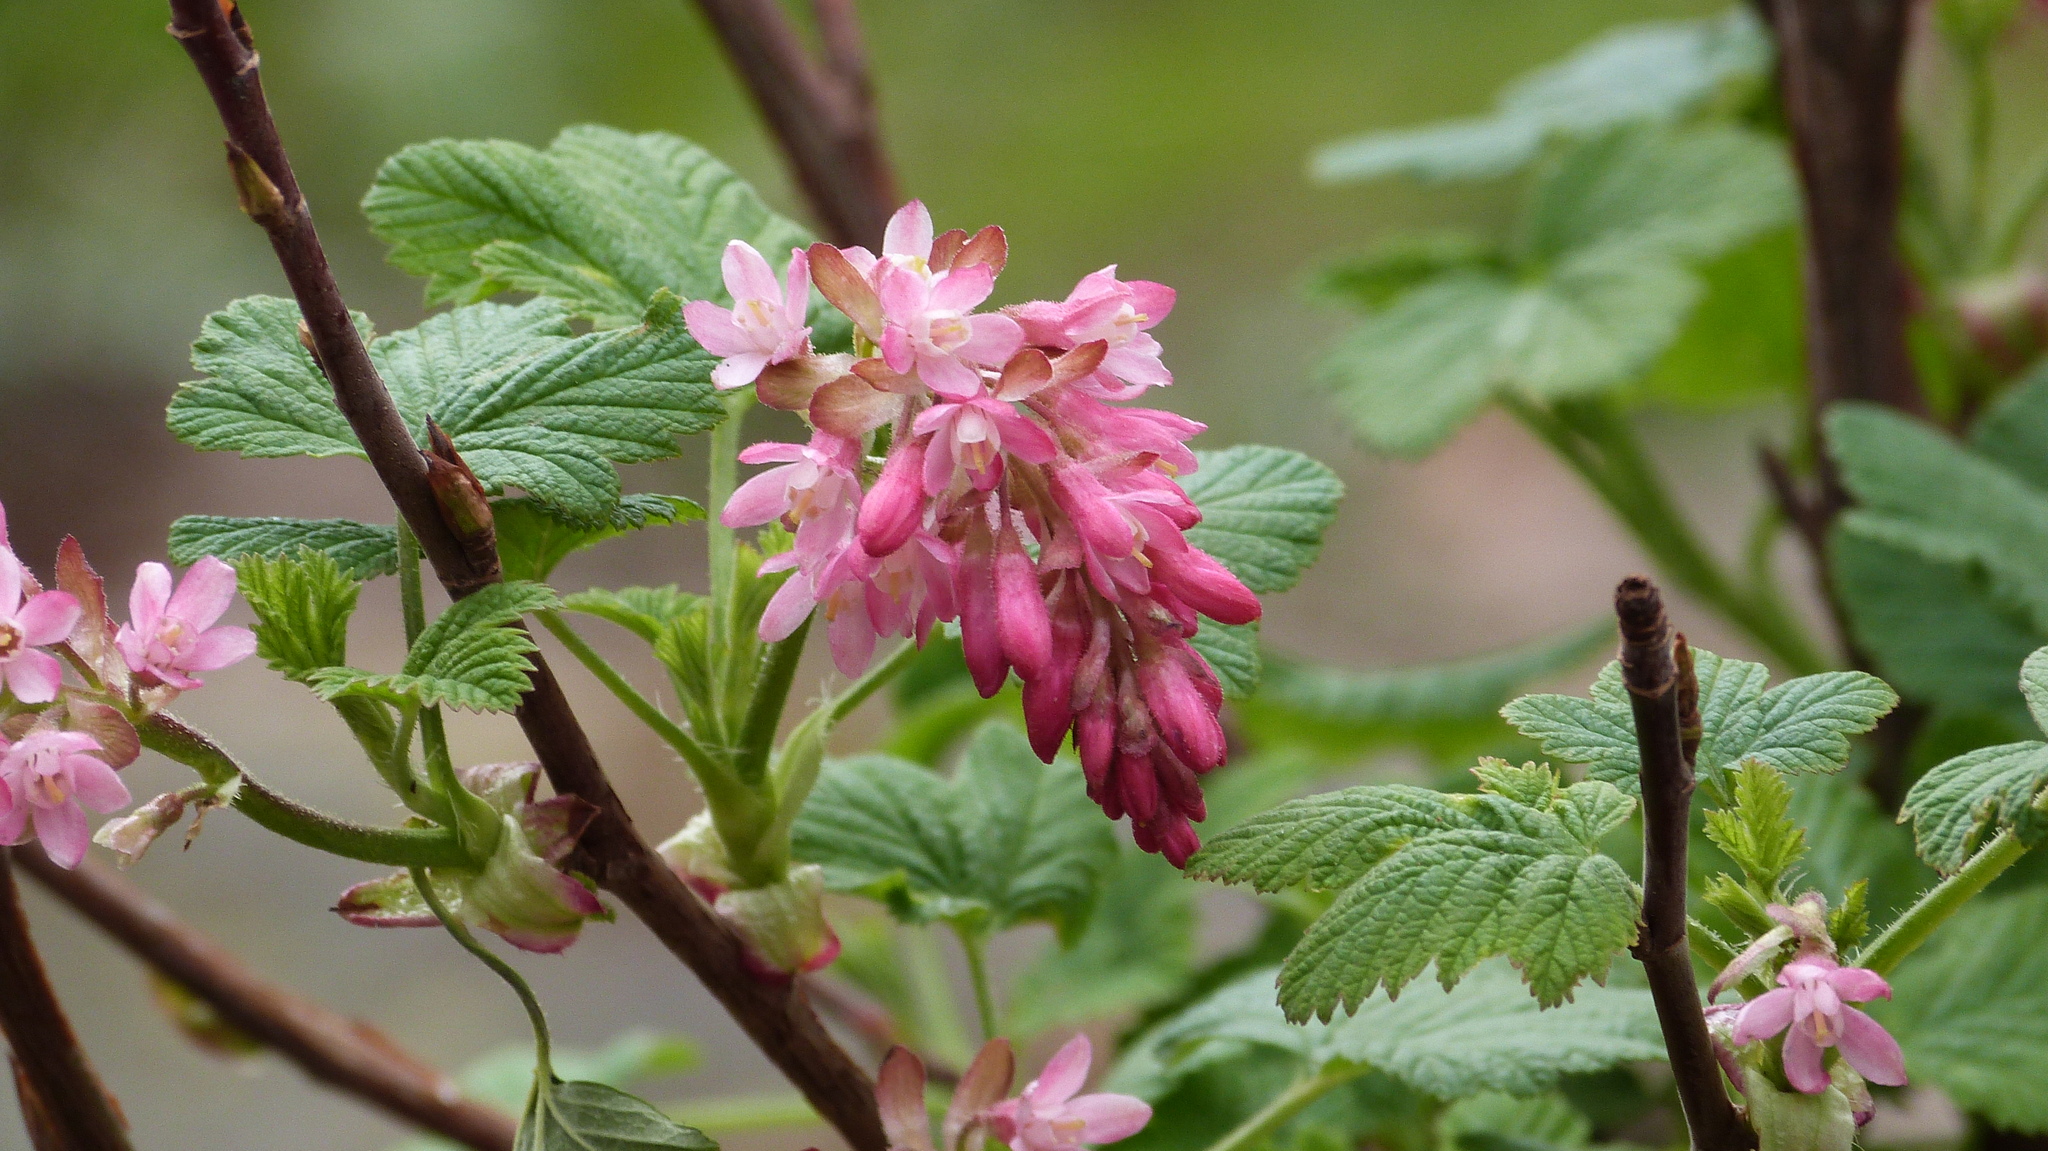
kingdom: Plantae
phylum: Tracheophyta
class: Magnoliopsida
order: Saxifragales
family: Grossulariaceae
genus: Ribes
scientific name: Ribes sanguineum
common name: Flowering currant
